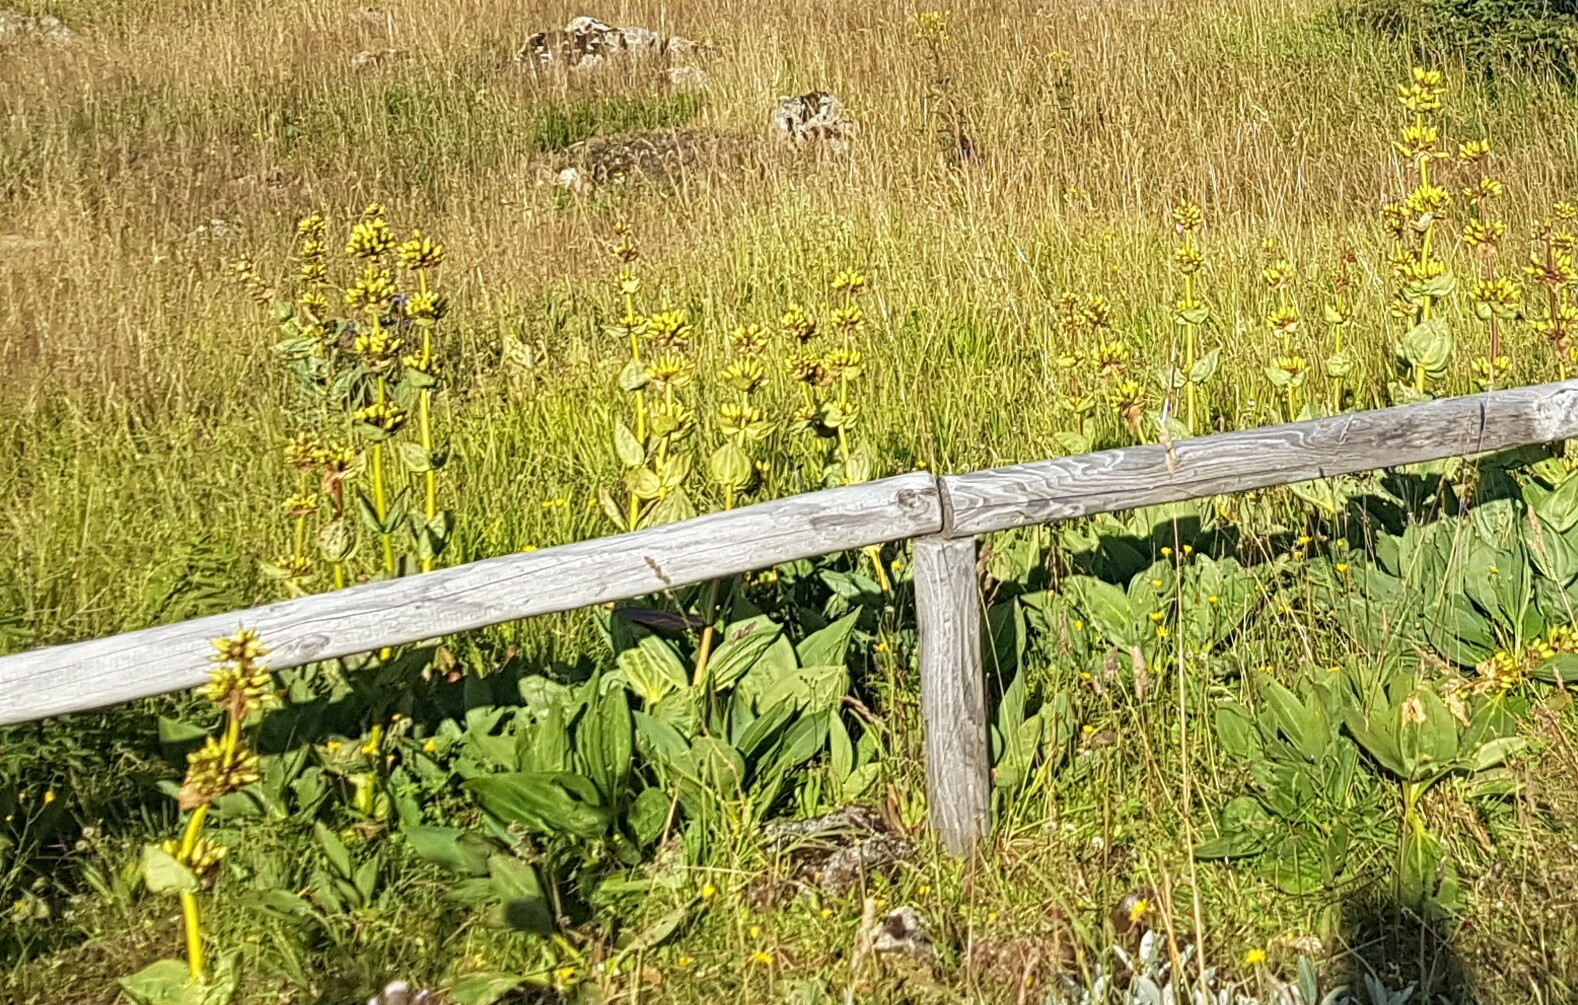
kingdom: Plantae
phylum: Tracheophyta
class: Magnoliopsida
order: Gentianales
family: Gentianaceae
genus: Gentiana
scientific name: Gentiana lutea
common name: Great yellow gentian
